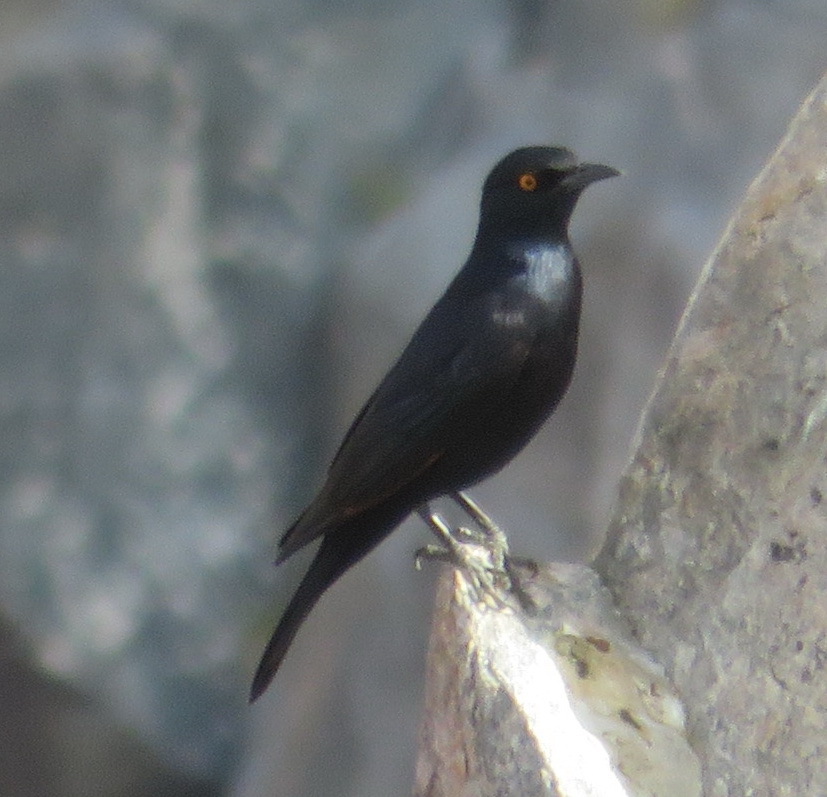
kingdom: Animalia
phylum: Chordata
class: Aves
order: Passeriformes
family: Sturnidae
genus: Onychognathus
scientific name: Onychognathus nabouroup
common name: Pale-winged starling
